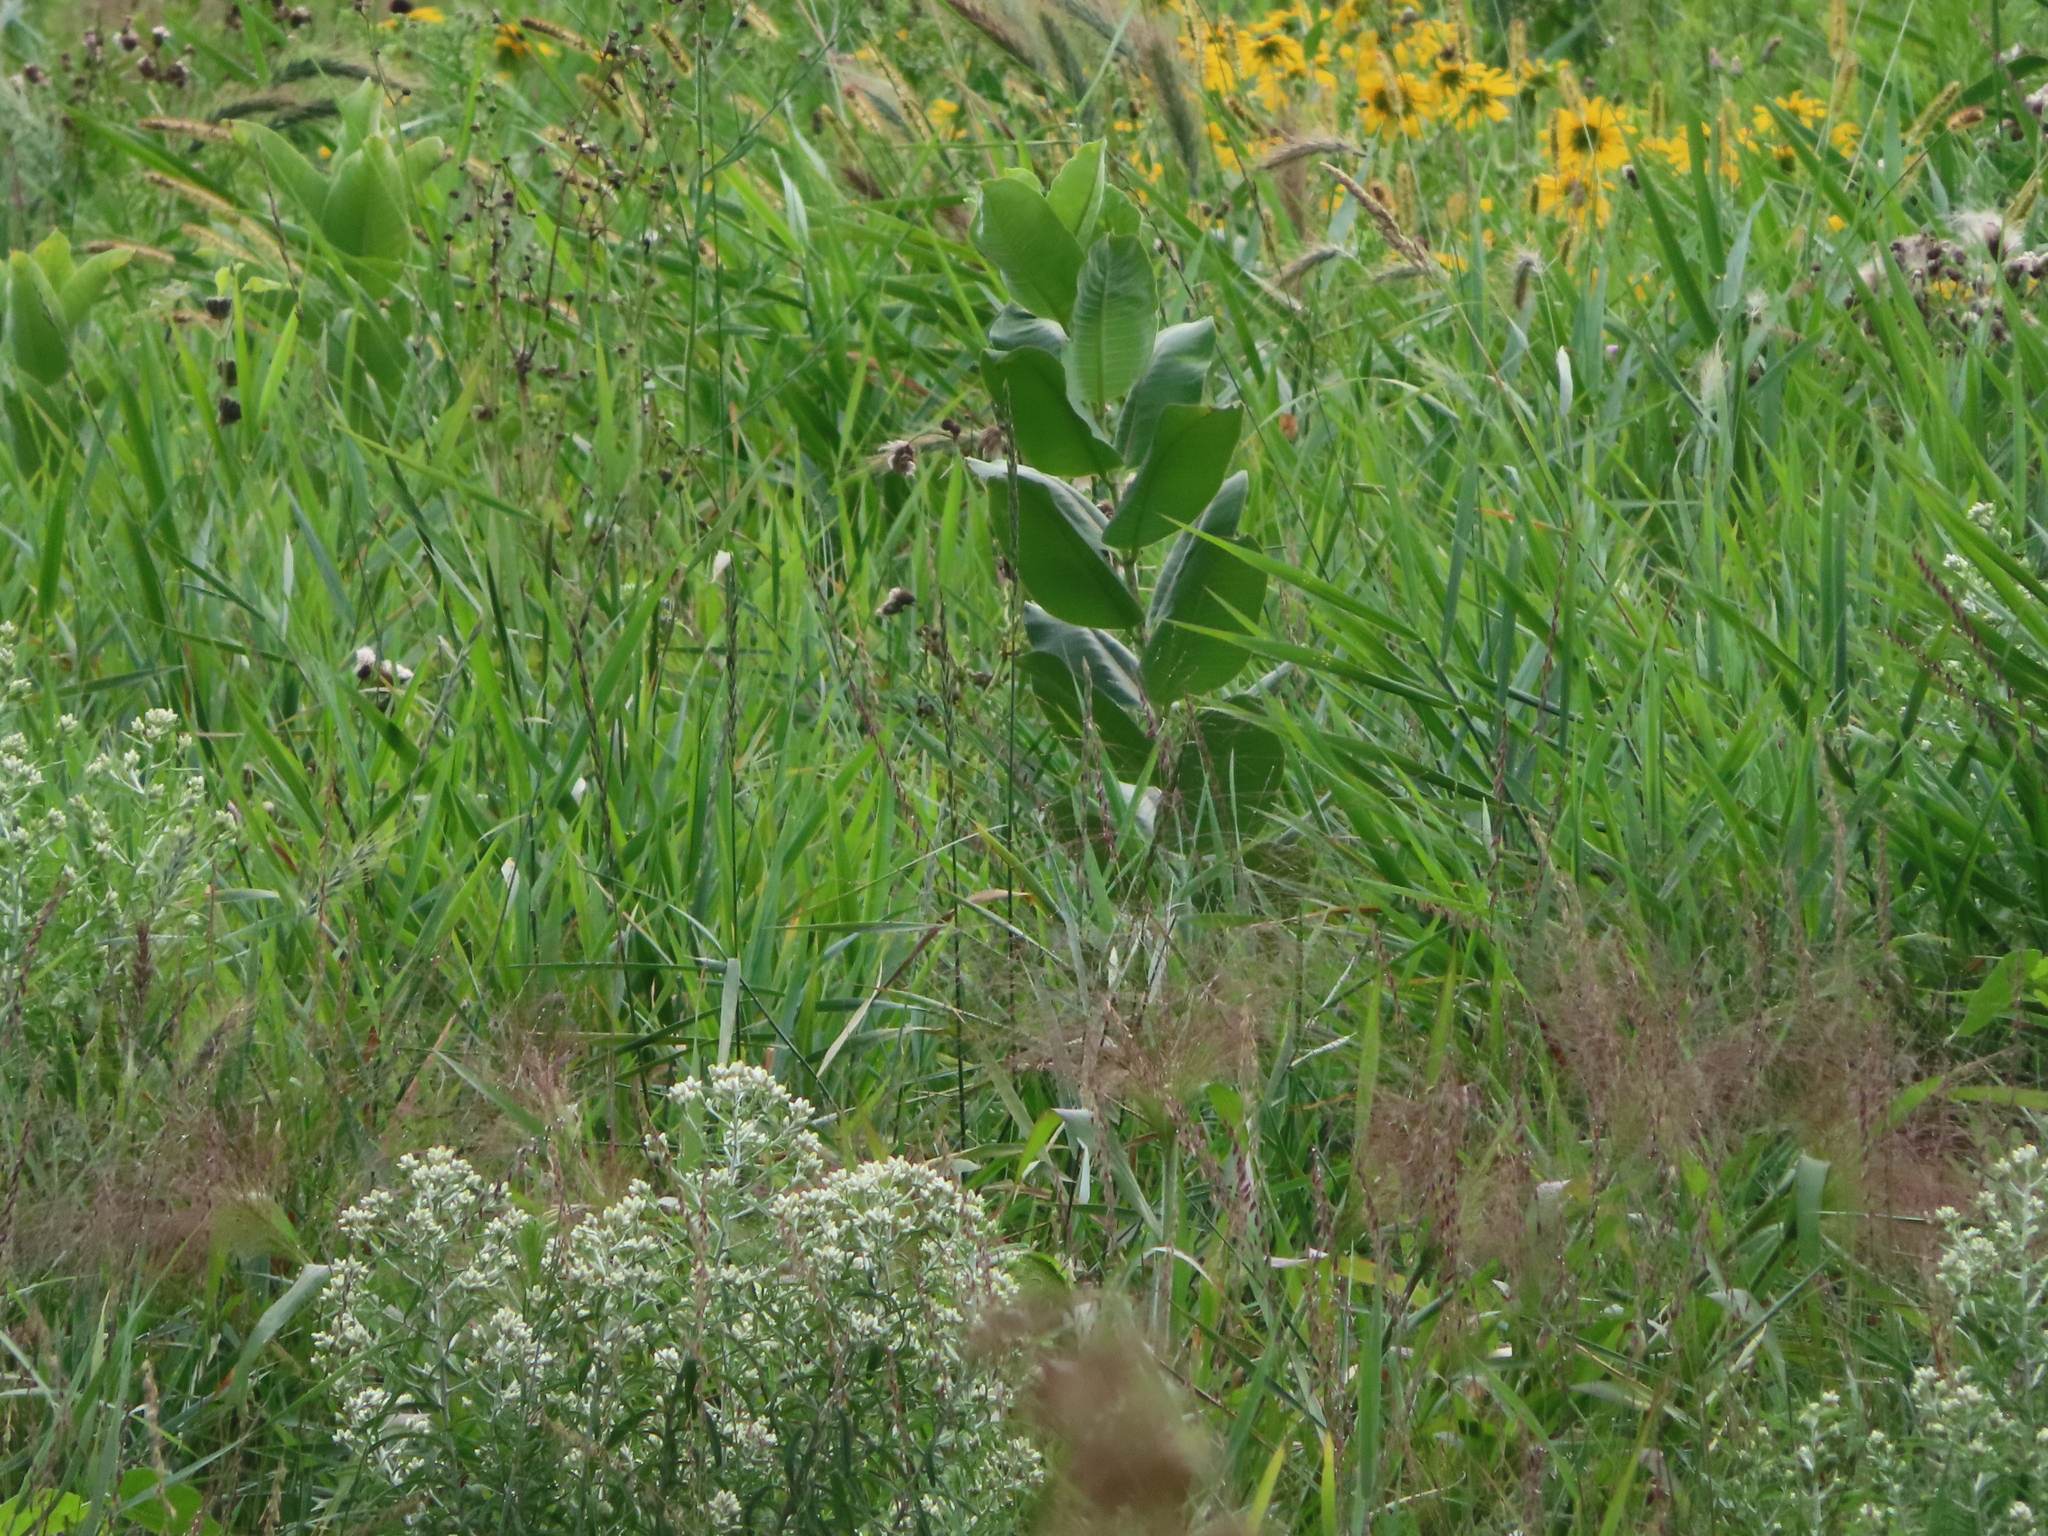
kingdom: Plantae
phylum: Tracheophyta
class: Magnoliopsida
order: Gentianales
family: Apocynaceae
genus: Asclepias
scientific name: Asclepias syriaca
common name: Common milkweed
